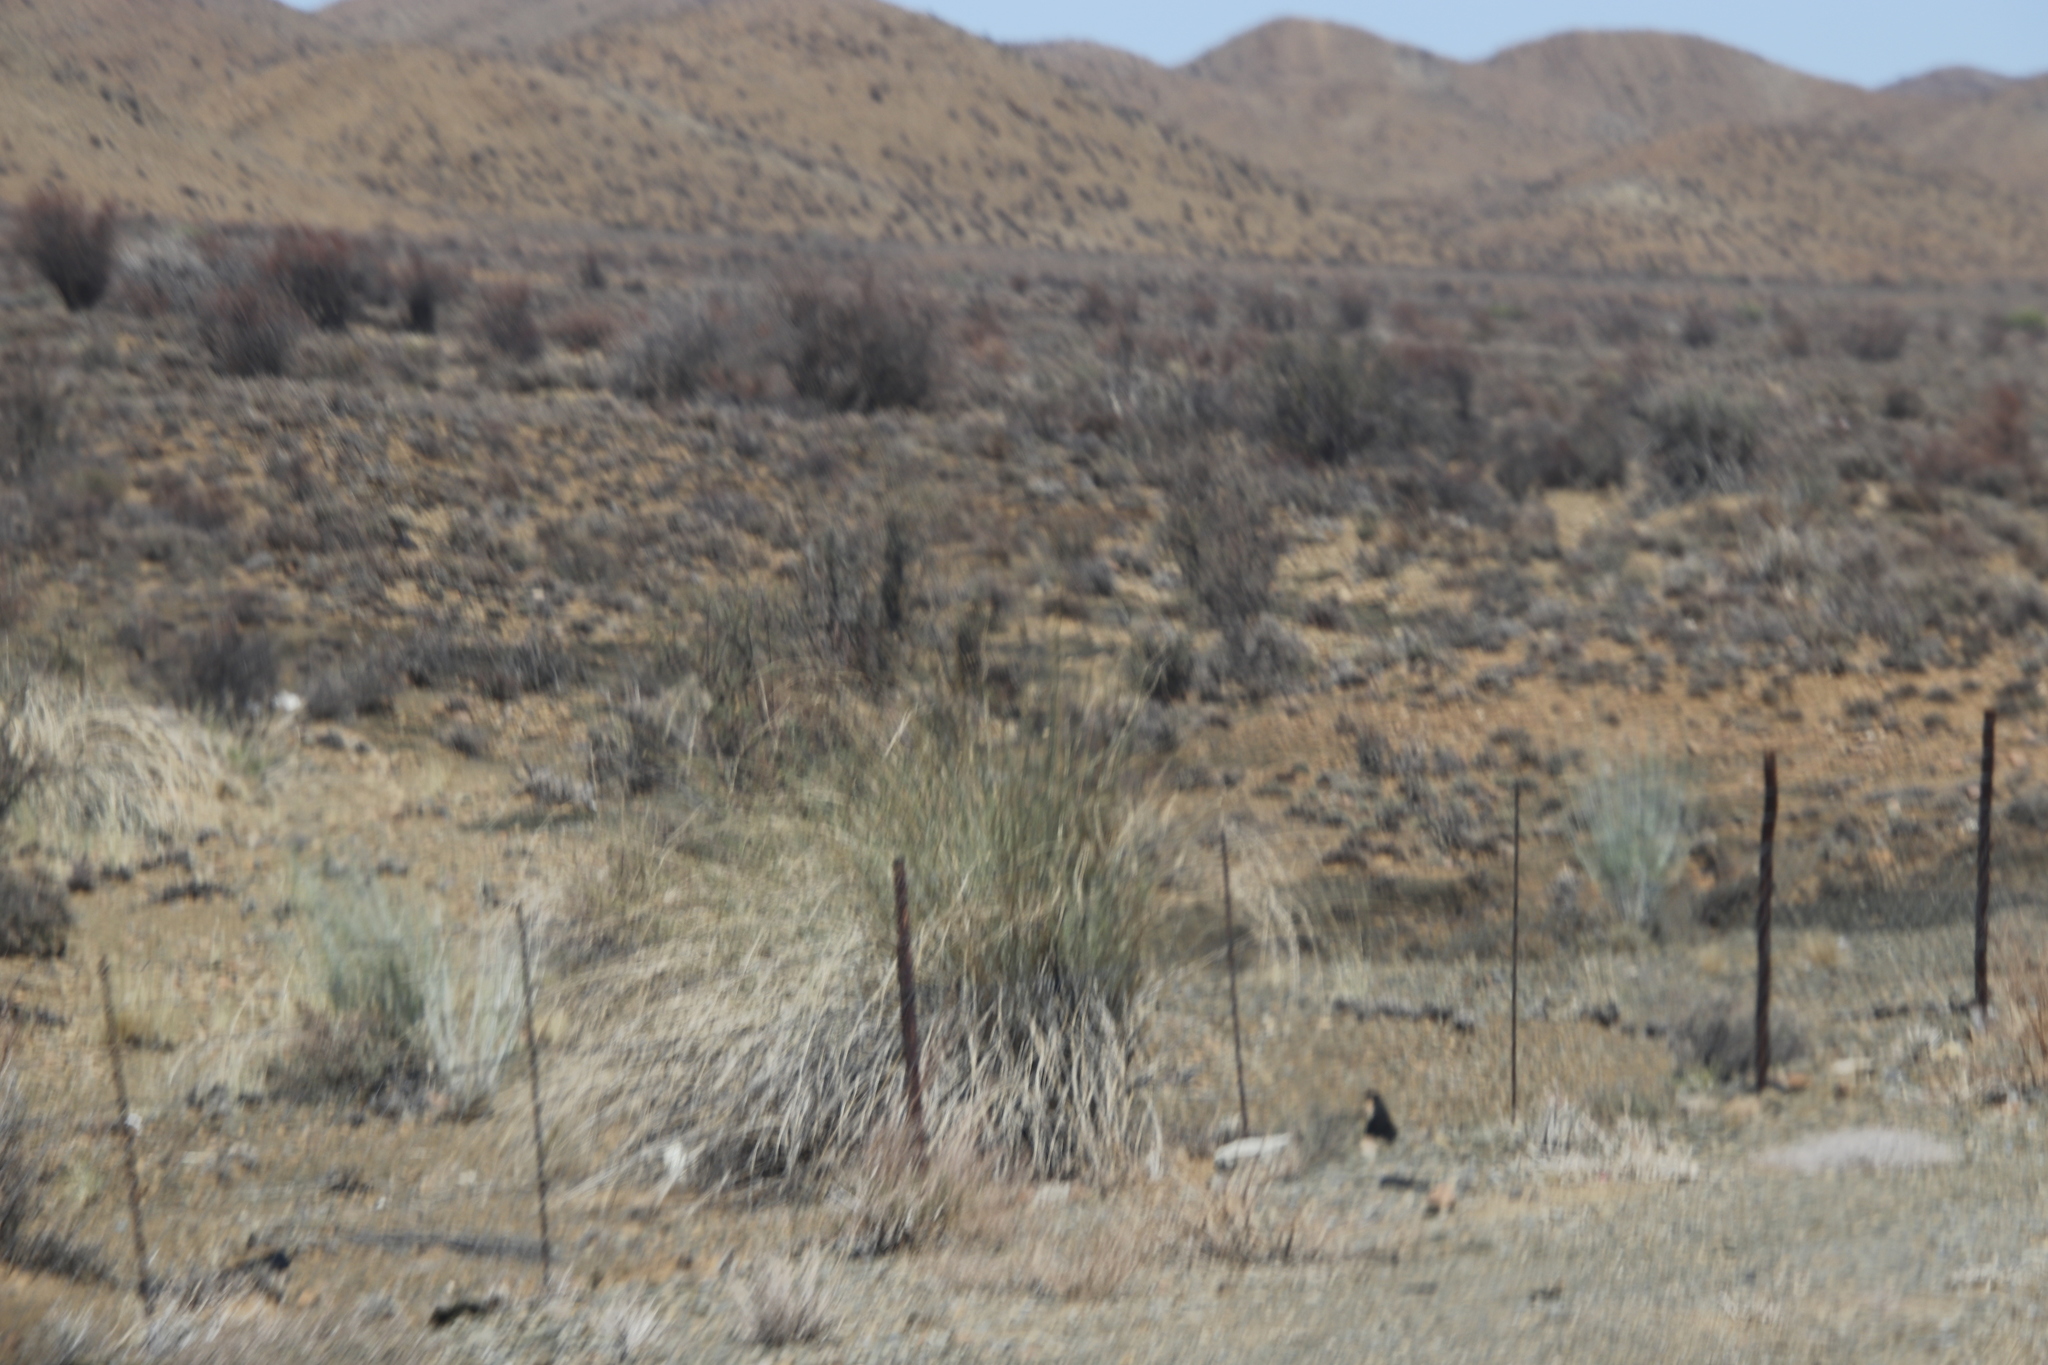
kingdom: Plantae
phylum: Tracheophyta
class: Magnoliopsida
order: Gentianales
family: Apocynaceae
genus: Gomphocarpus
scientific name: Gomphocarpus filiformis
